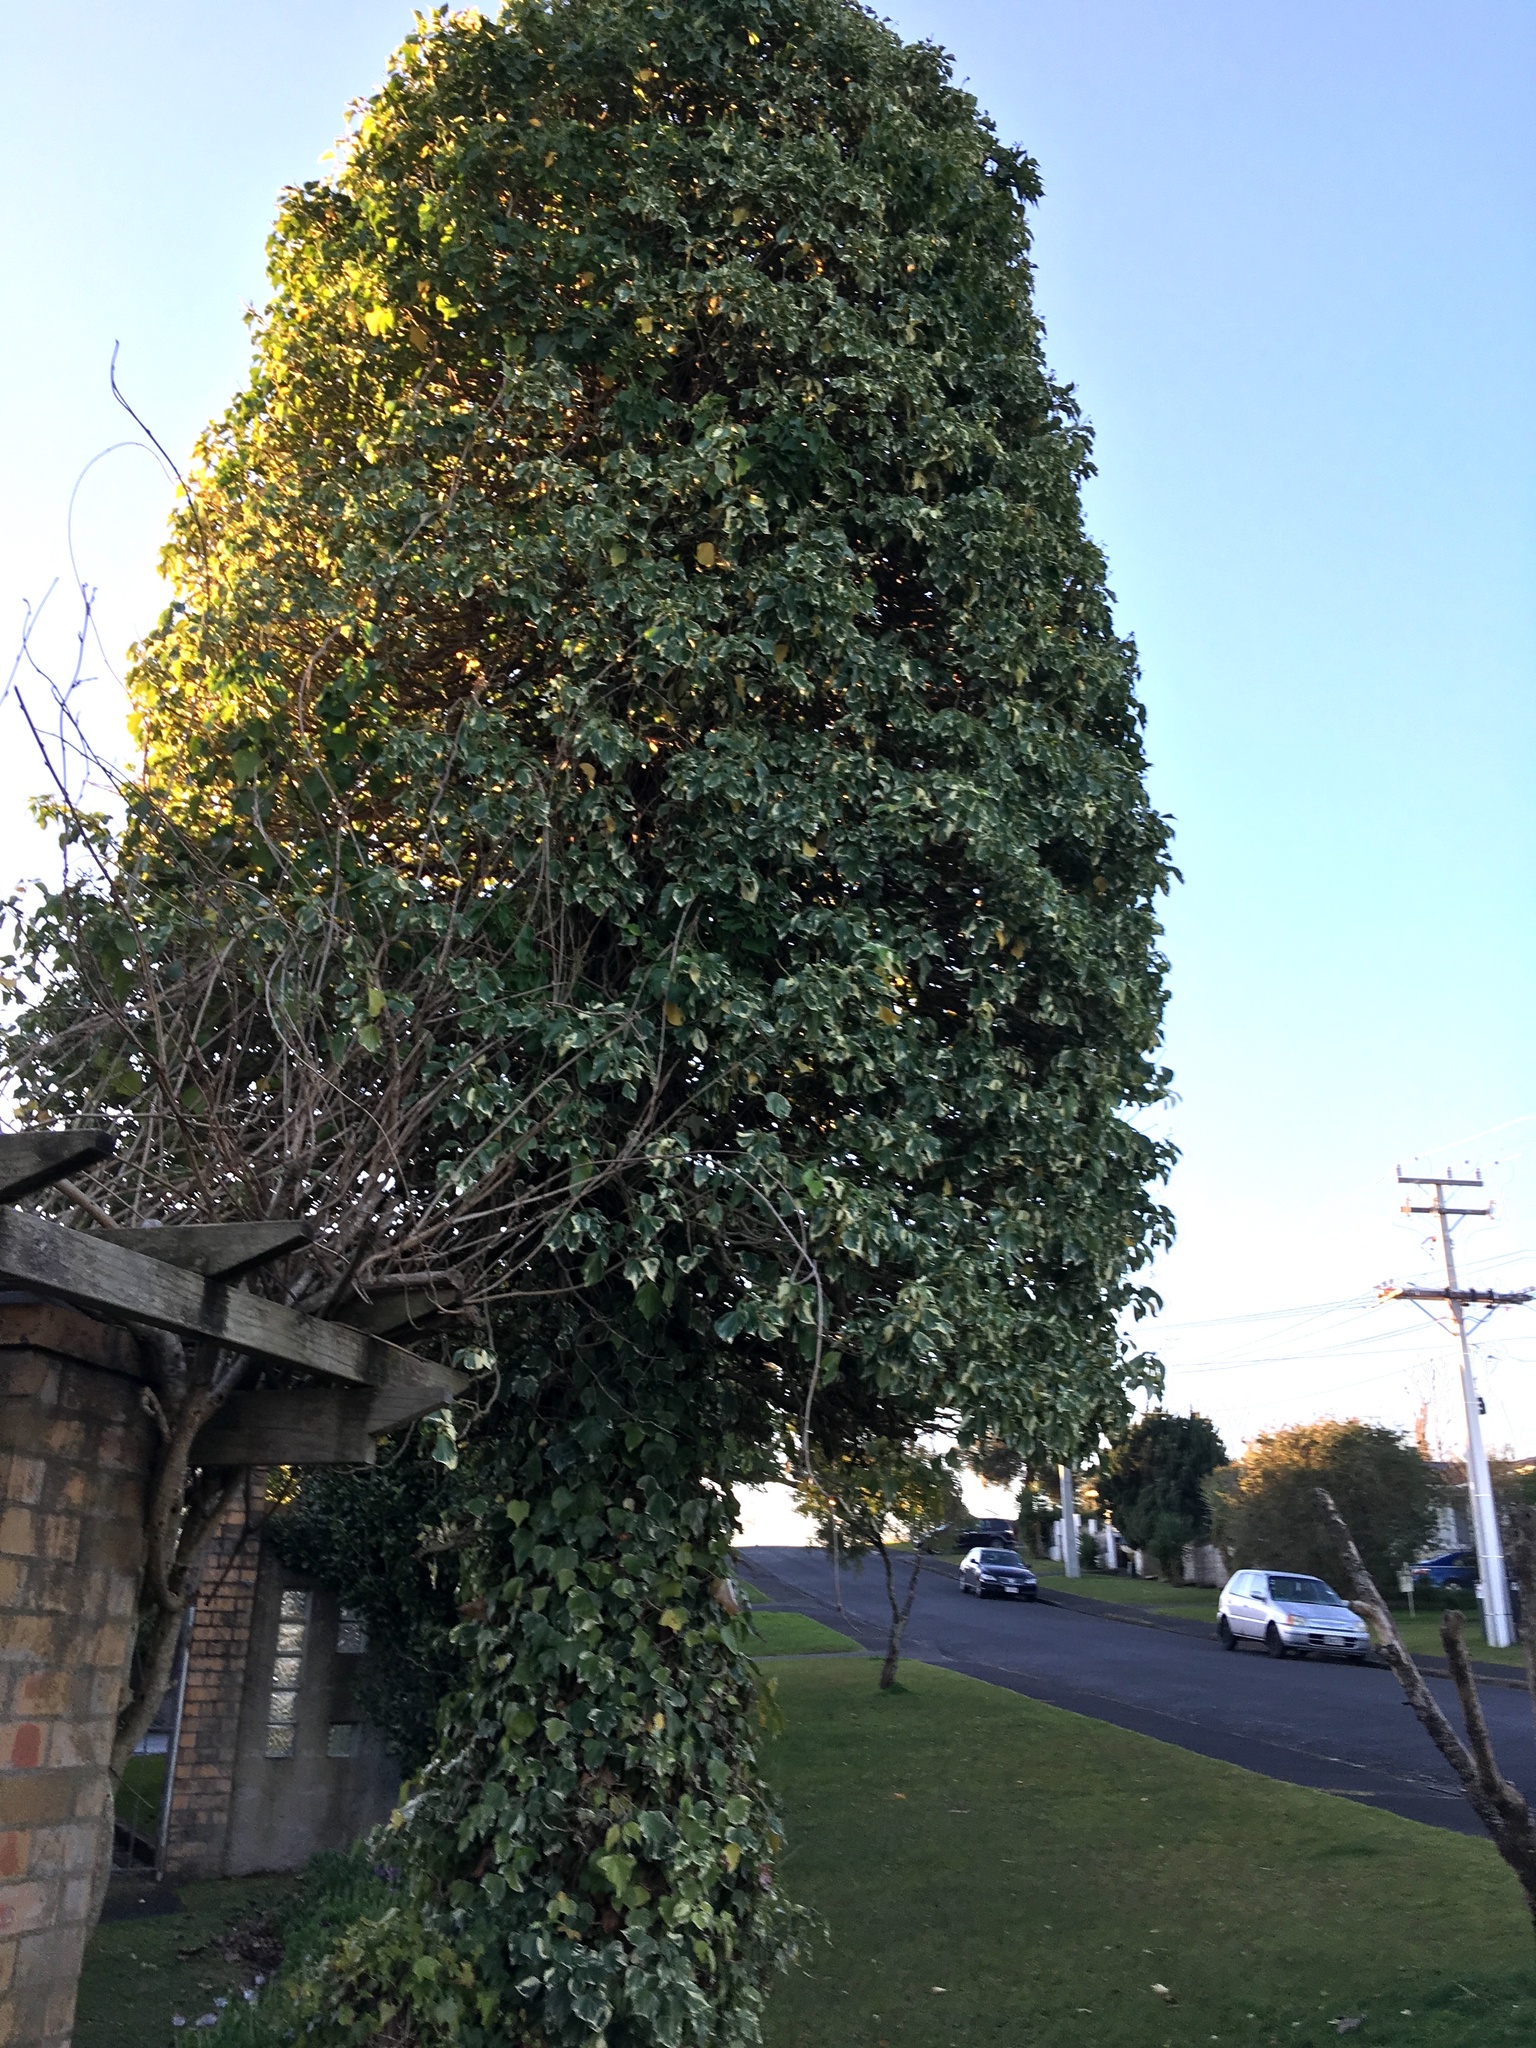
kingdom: Plantae
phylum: Tracheophyta
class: Magnoliopsida
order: Apiales
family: Araliaceae
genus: Hedera
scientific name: Hedera helix
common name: Ivy
